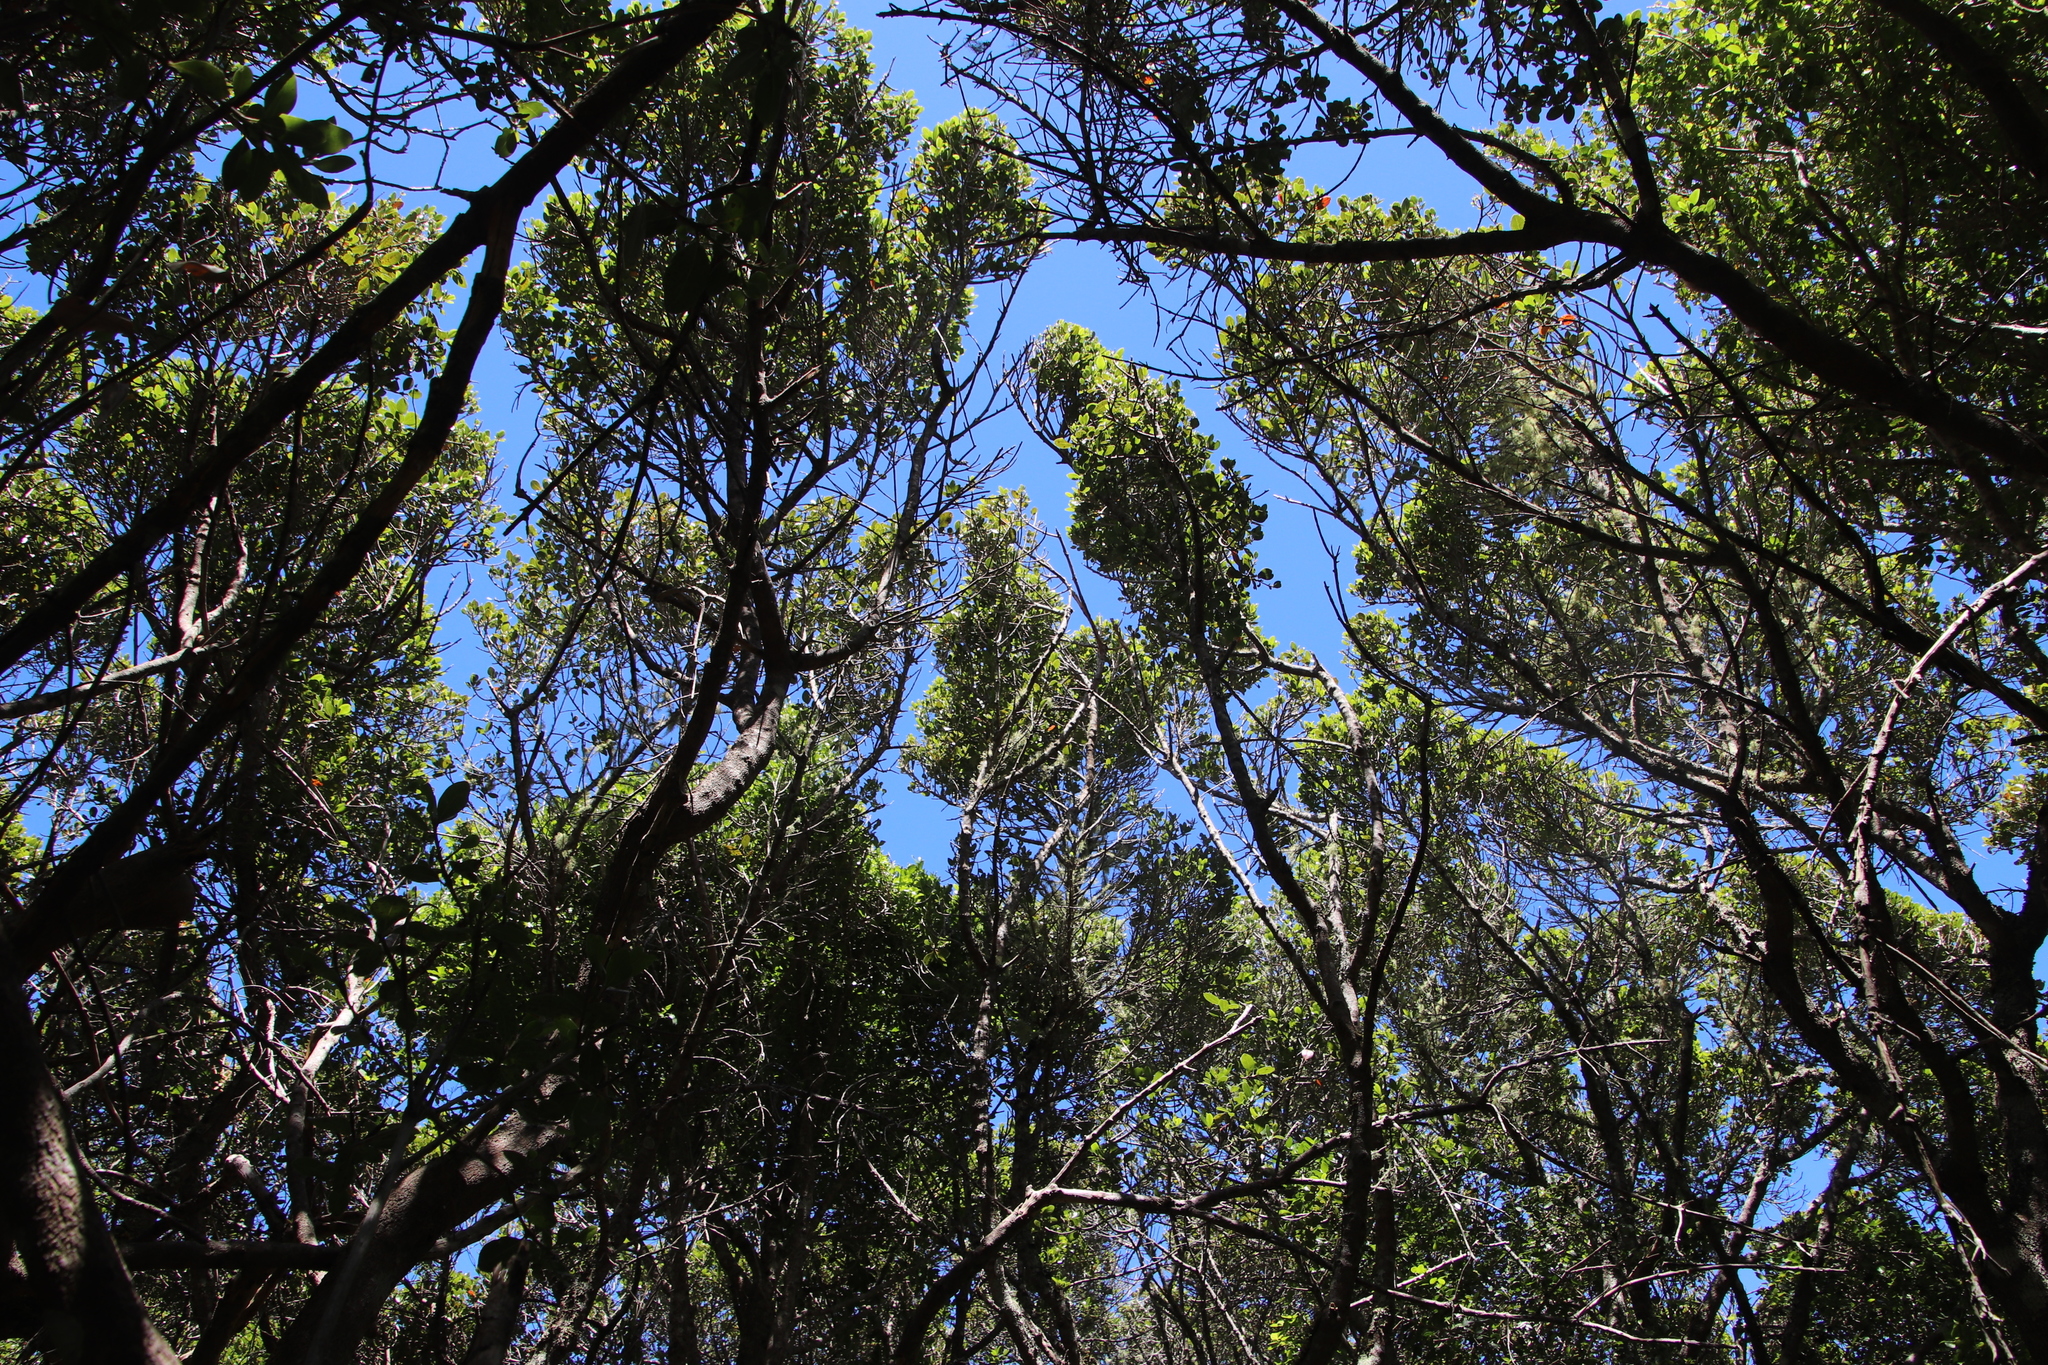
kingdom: Plantae
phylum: Tracheophyta
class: Magnoliopsida
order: Ericales
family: Sapotaceae
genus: Sideroxylon
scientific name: Sideroxylon inerme
